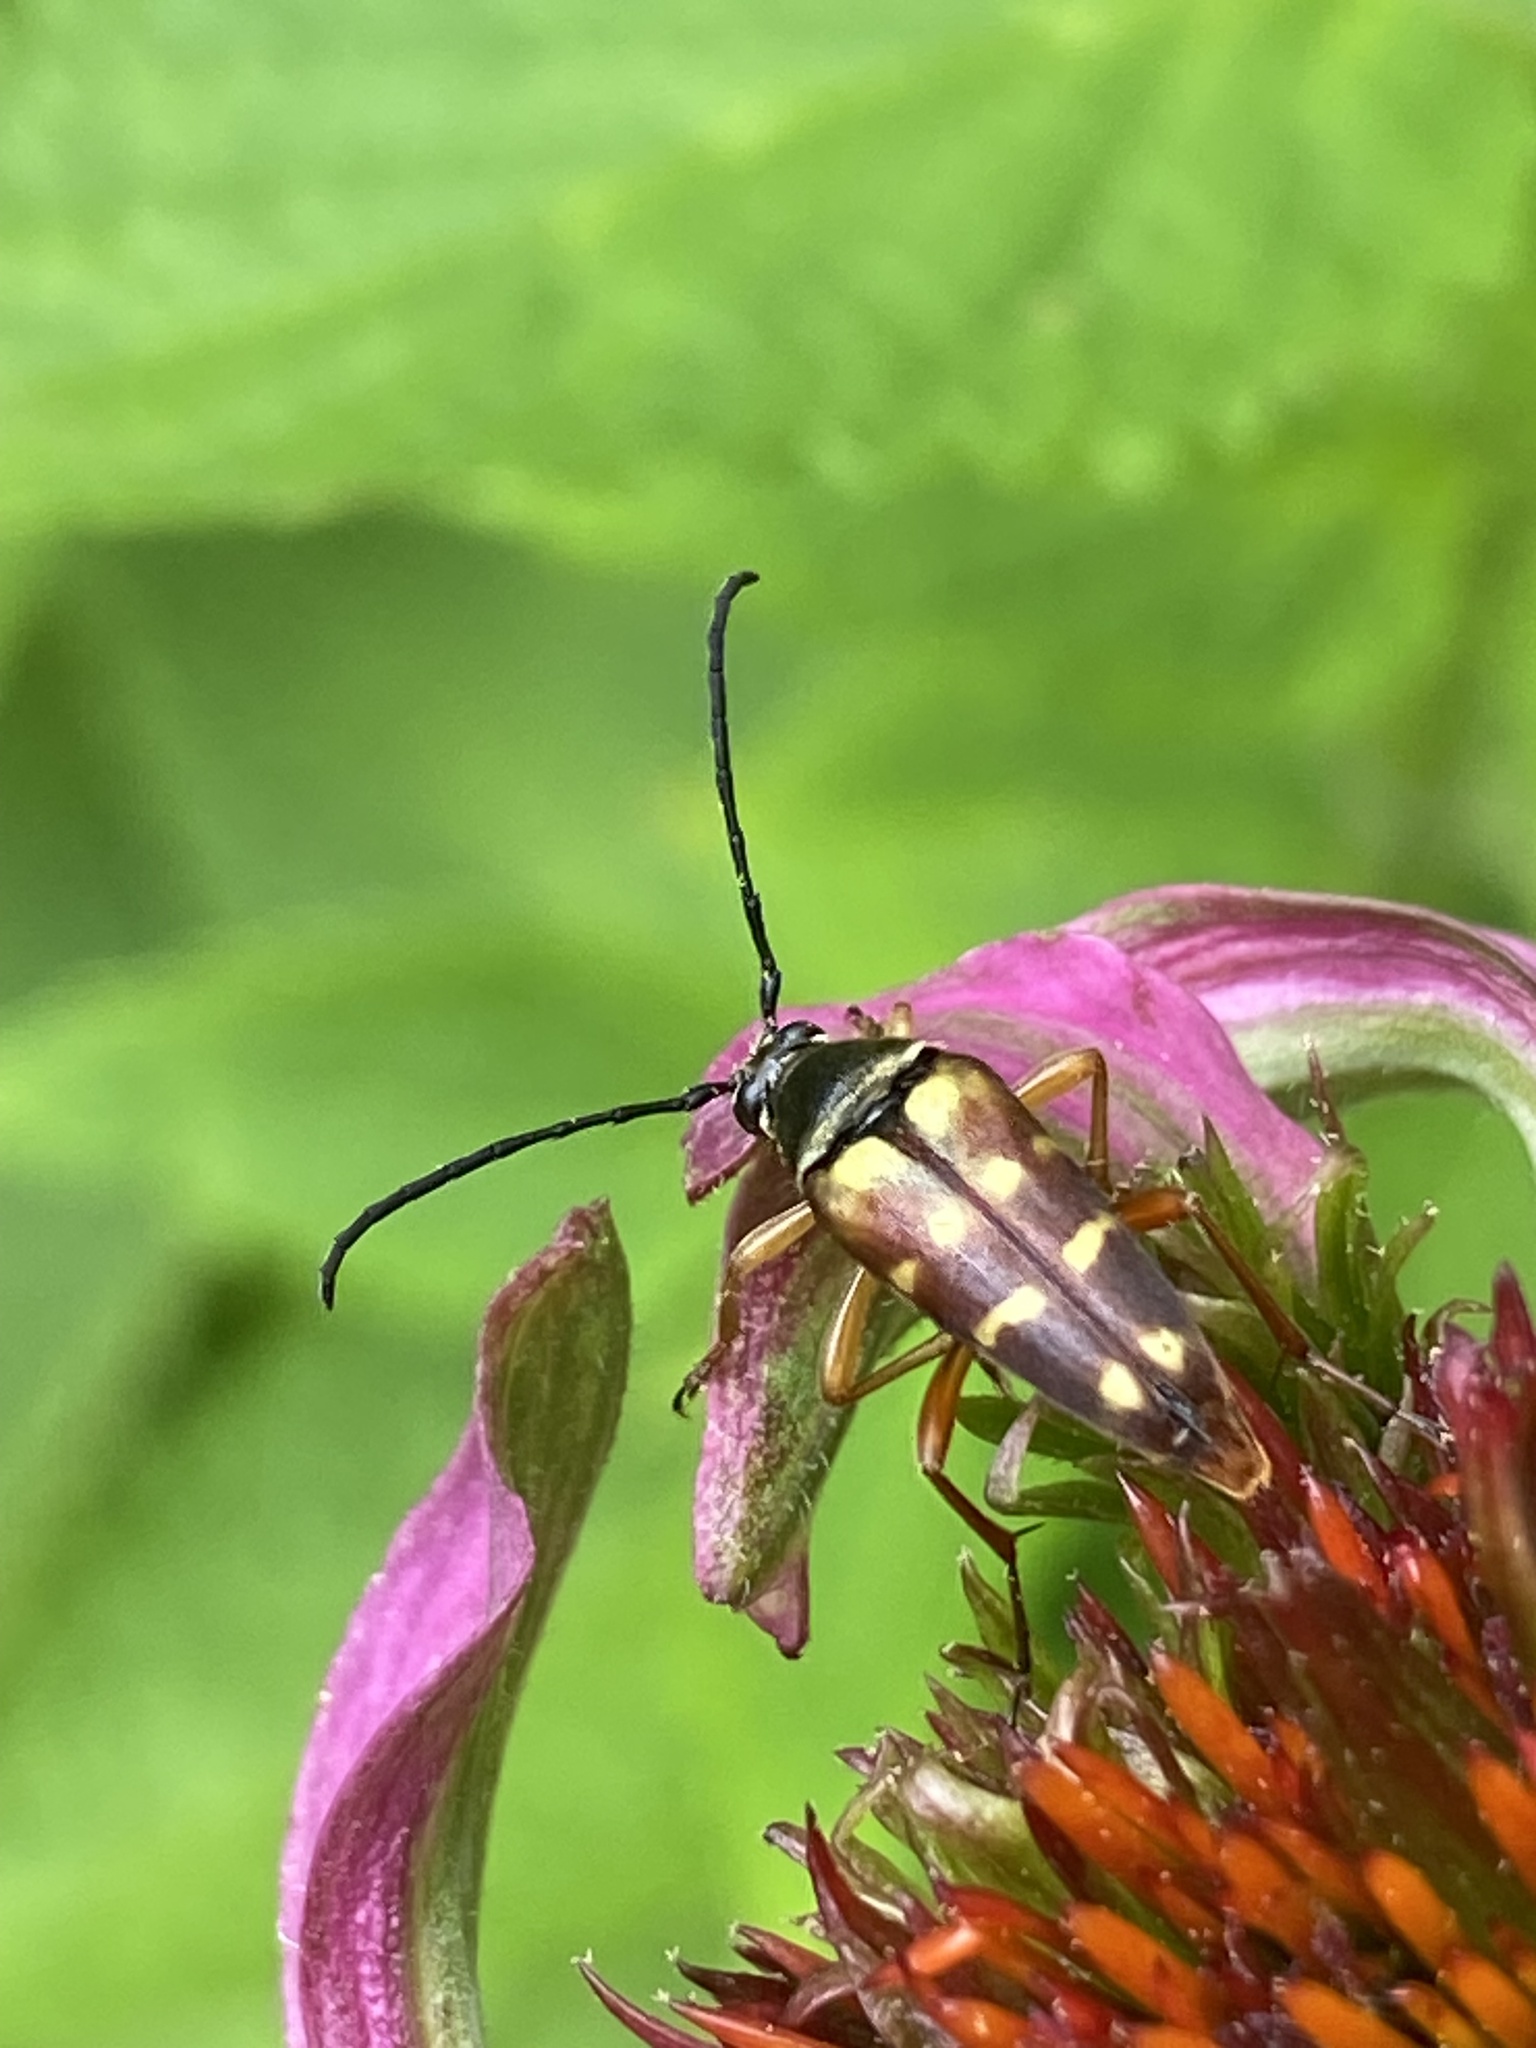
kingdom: Animalia
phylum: Arthropoda
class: Insecta
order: Coleoptera
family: Cerambycidae
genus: Typocerus
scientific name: Typocerus velutinus
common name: Banded longhorn beetle
